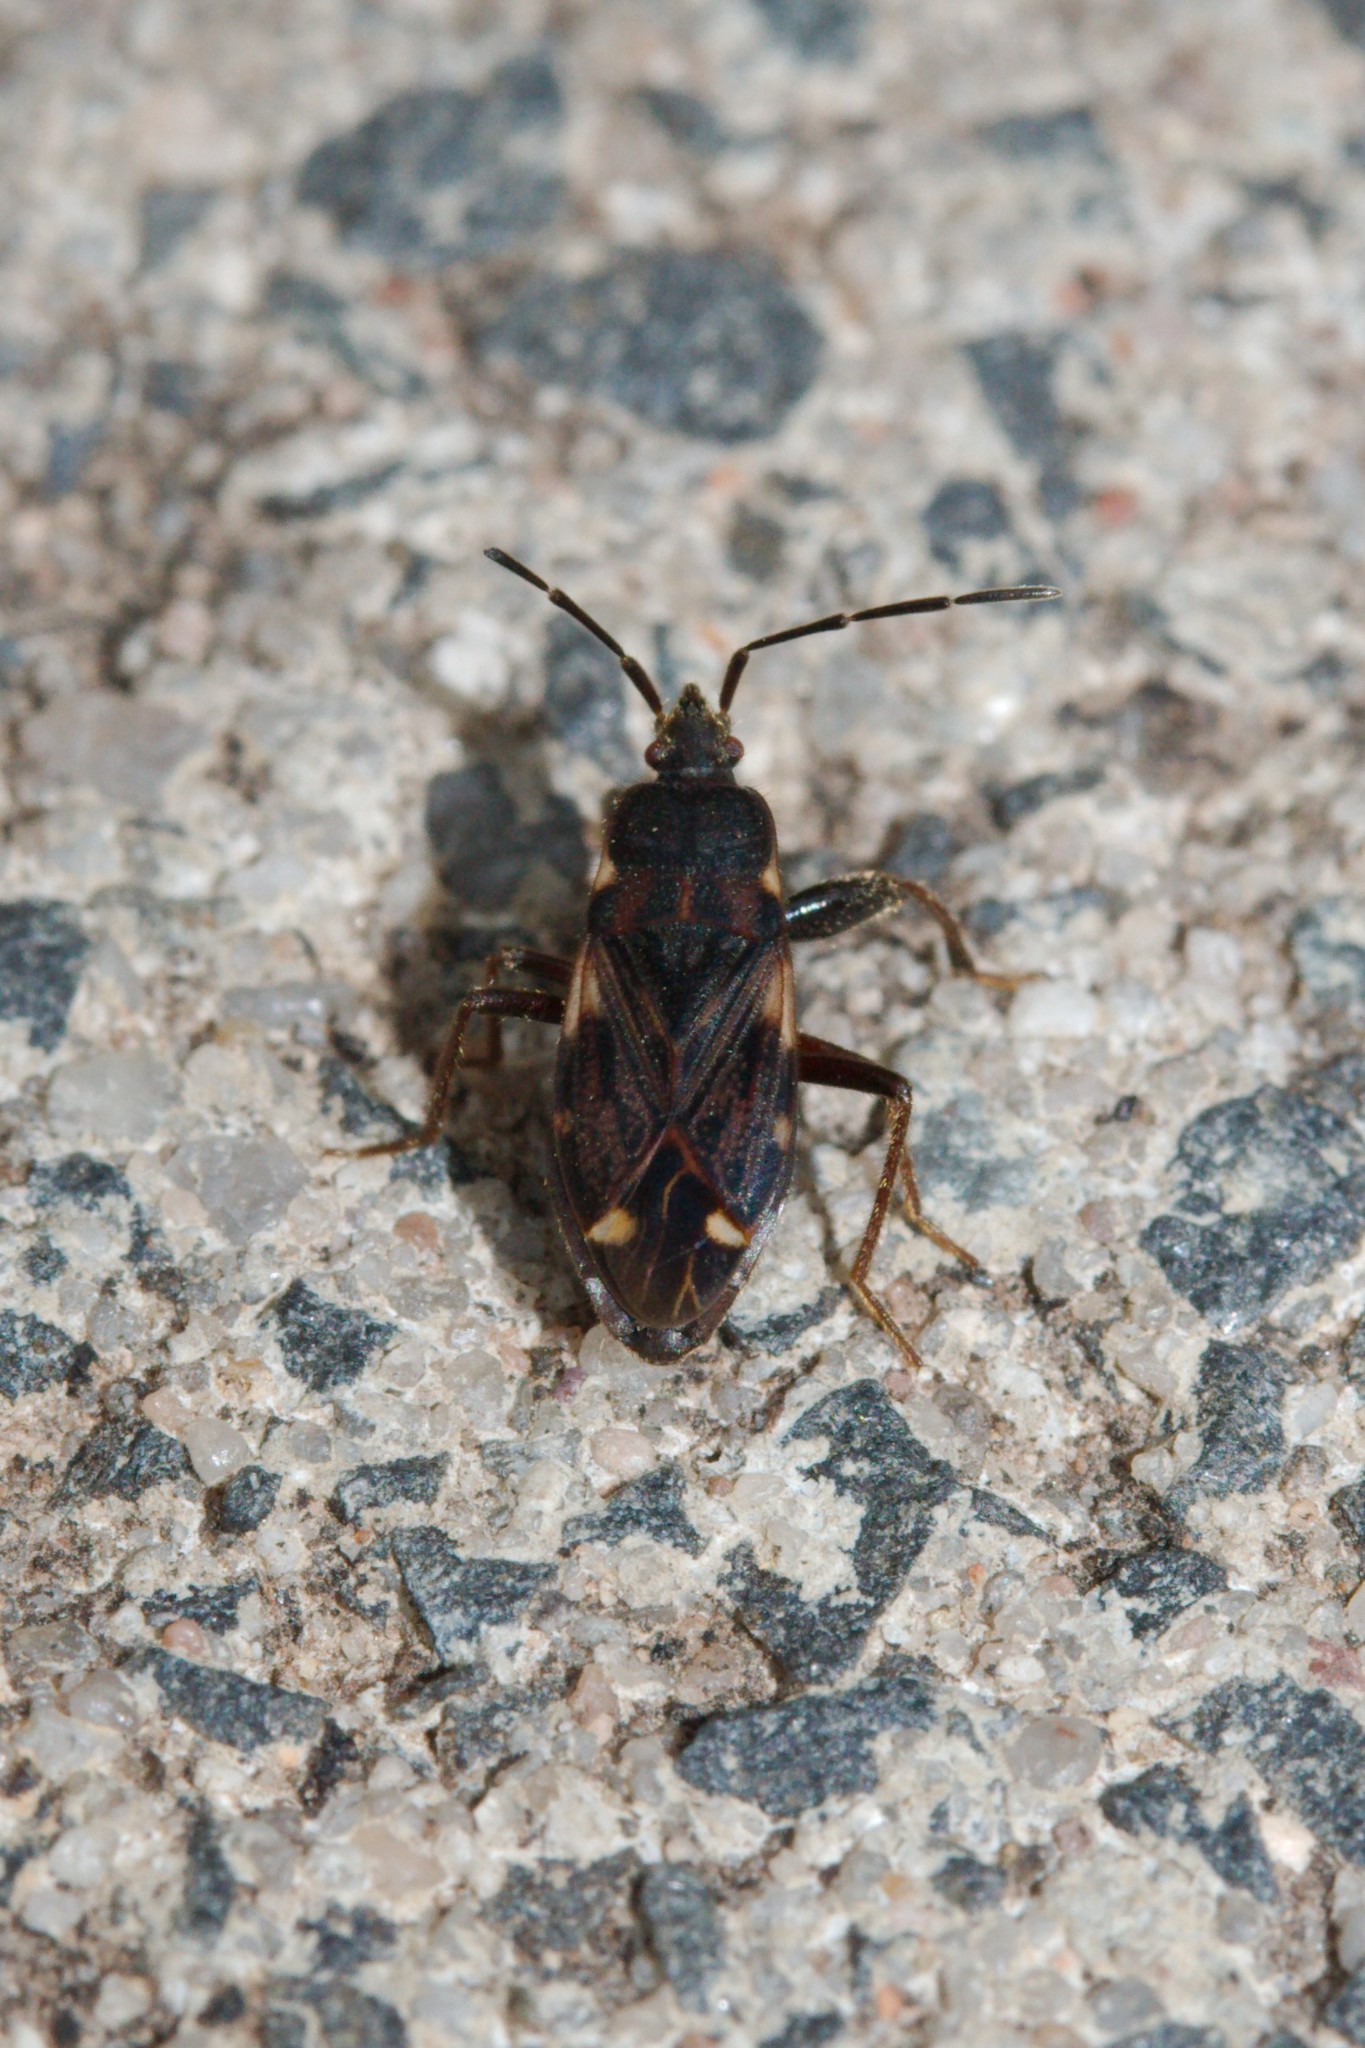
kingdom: Animalia
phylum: Arthropoda
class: Insecta
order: Hemiptera
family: Rhyparochromidae
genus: Eremocoris
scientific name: Eremocoris podagricus
